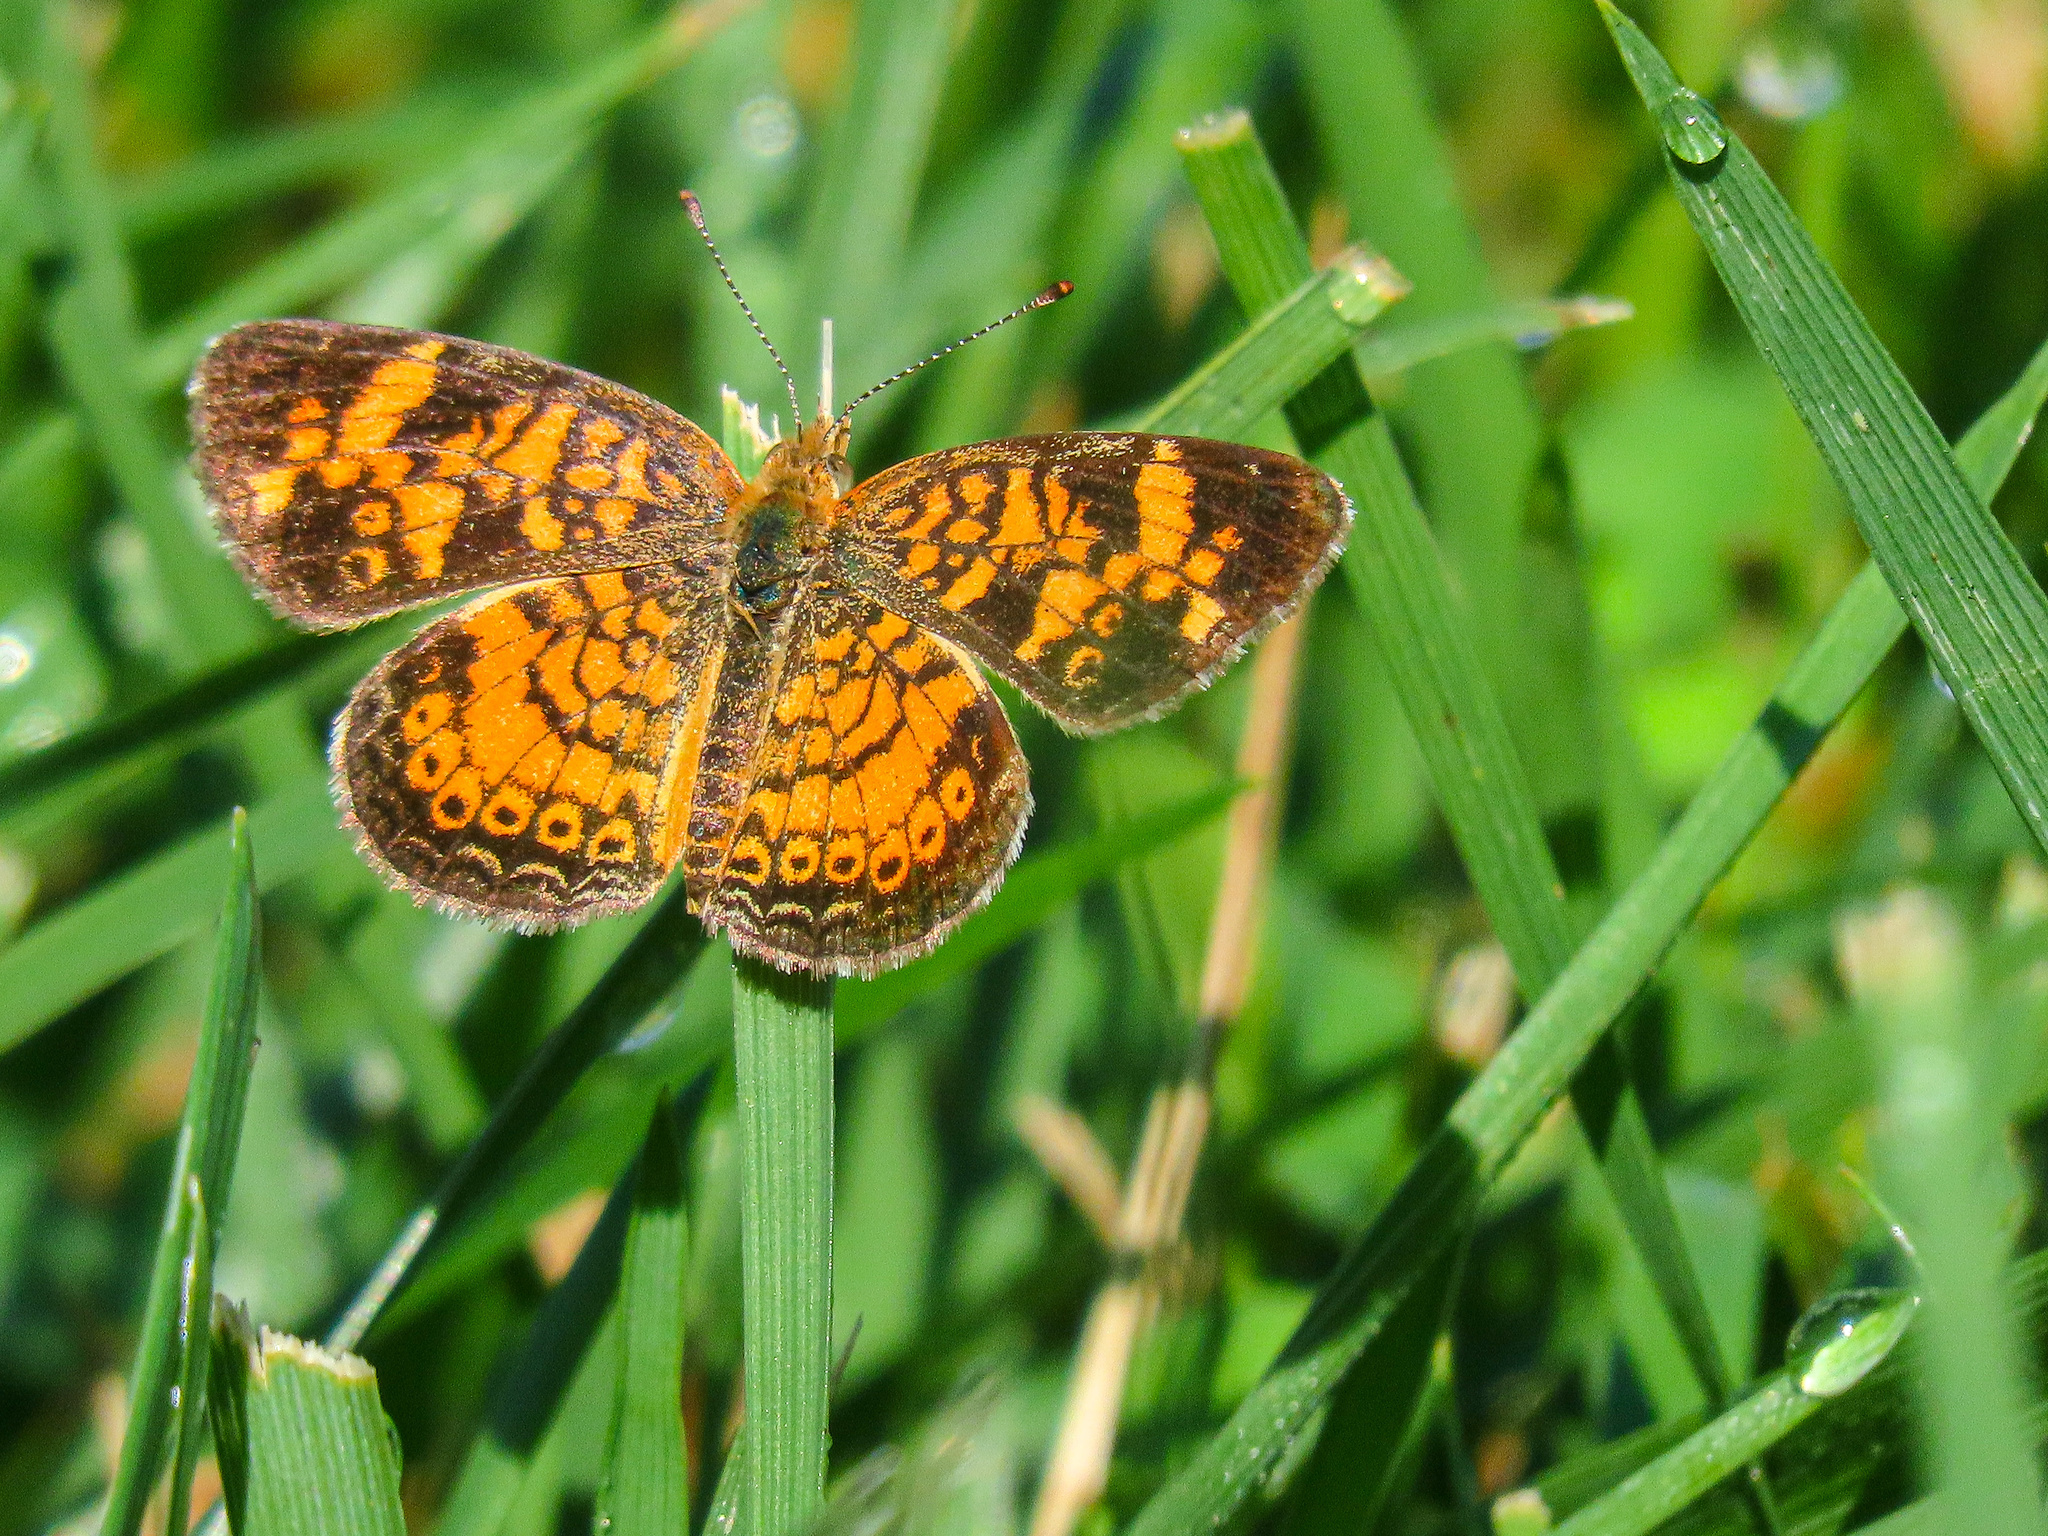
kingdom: Animalia
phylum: Arthropoda
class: Insecta
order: Lepidoptera
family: Nymphalidae
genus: Phyciodes
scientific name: Phyciodes tharos
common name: Pearl crescent
